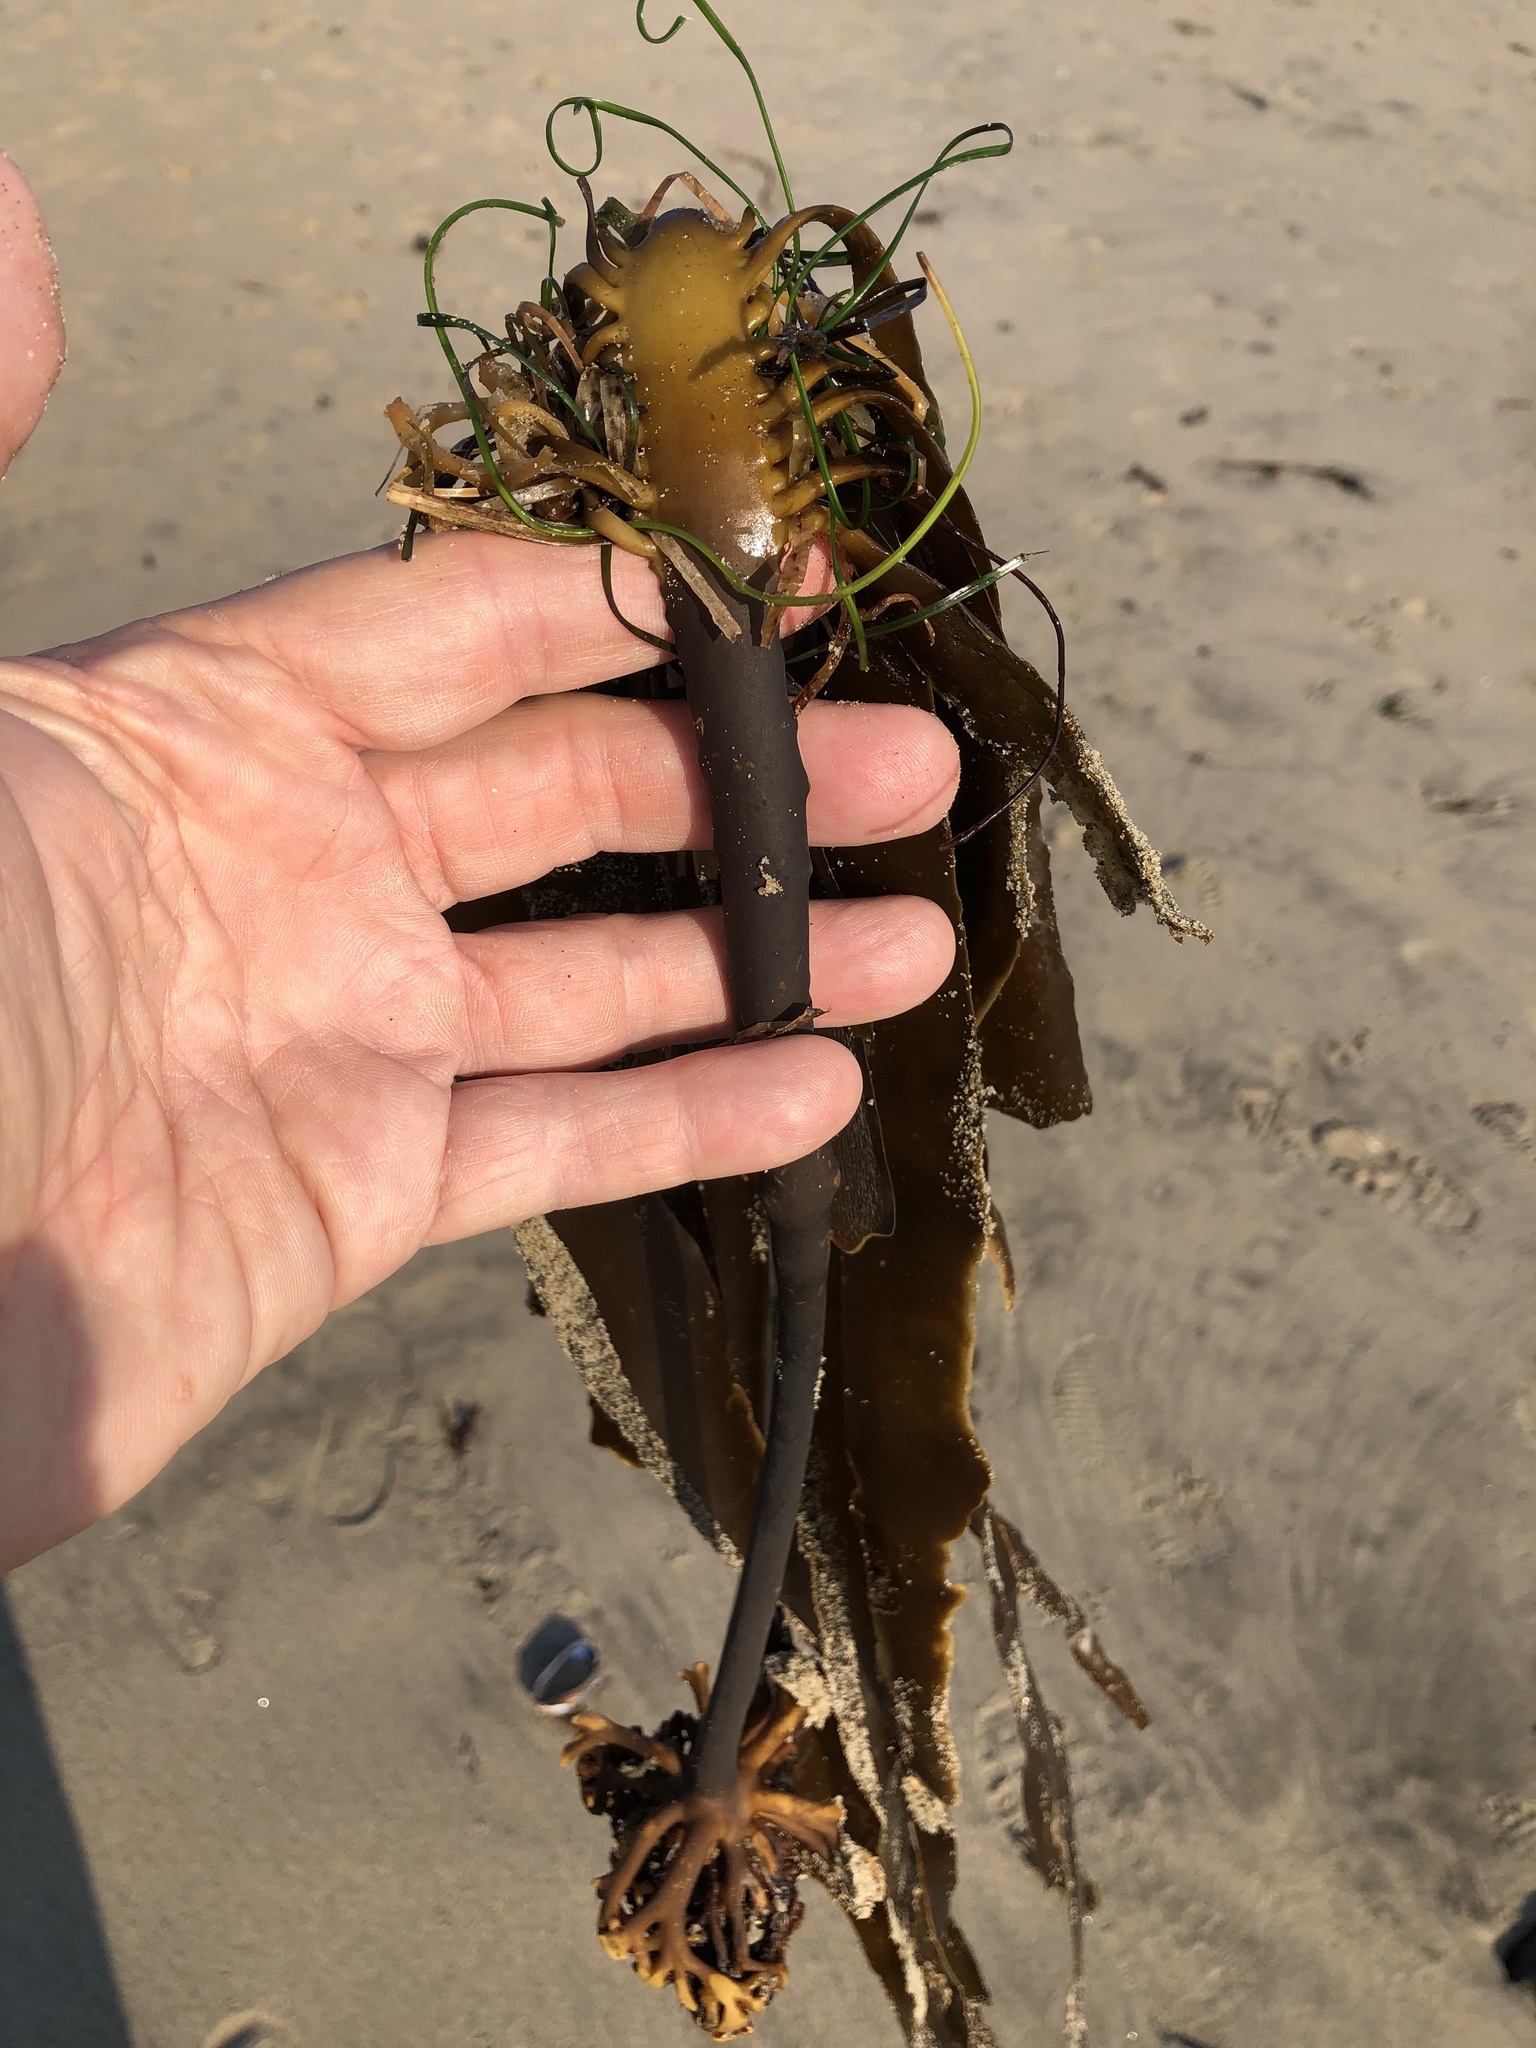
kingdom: Chromista
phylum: Ochrophyta
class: Phaeophyceae
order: Laminariales
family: Alariaceae
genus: Pterygophora
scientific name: Pterygophora californica
